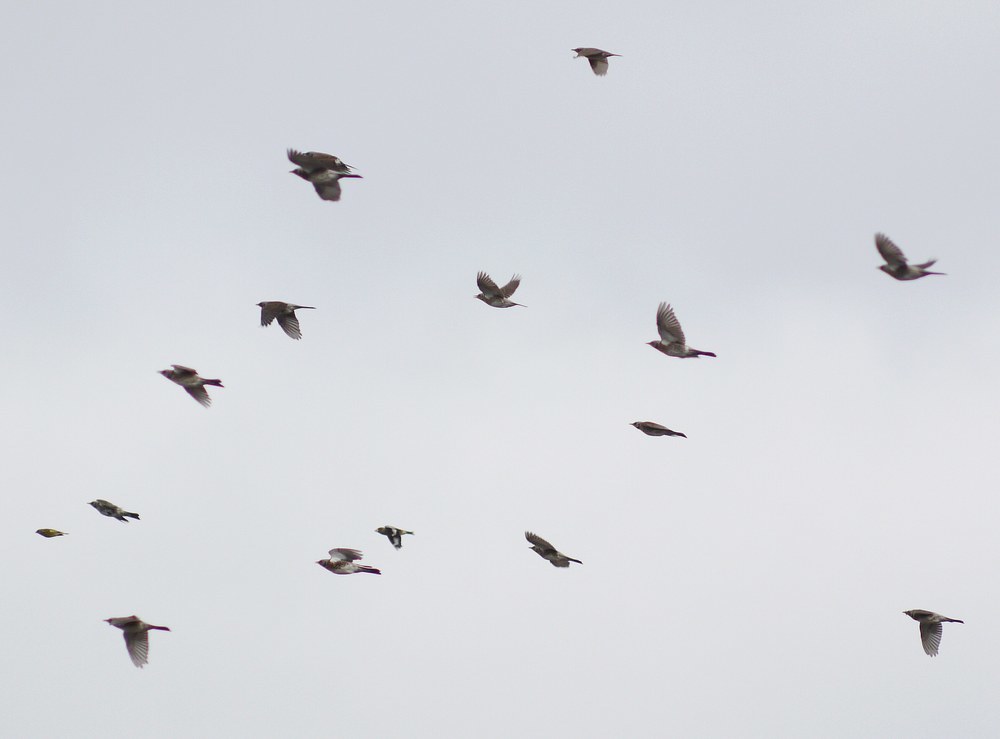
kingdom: Animalia
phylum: Chordata
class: Aves
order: Passeriformes
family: Turdidae
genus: Turdus
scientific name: Turdus pilaris
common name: Fieldfare
